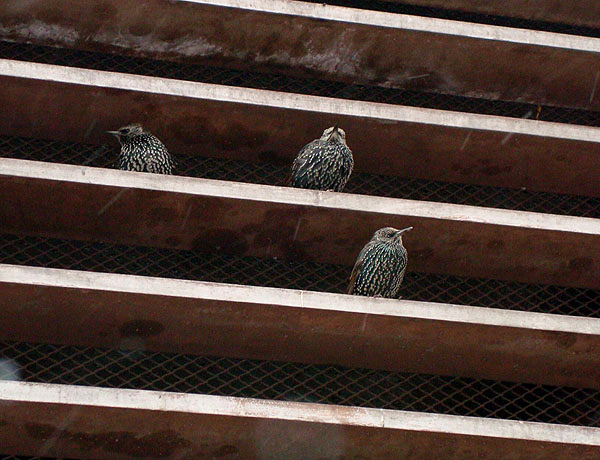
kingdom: Animalia
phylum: Chordata
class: Aves
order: Passeriformes
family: Sturnidae
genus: Sturnus
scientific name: Sturnus vulgaris
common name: Common starling
